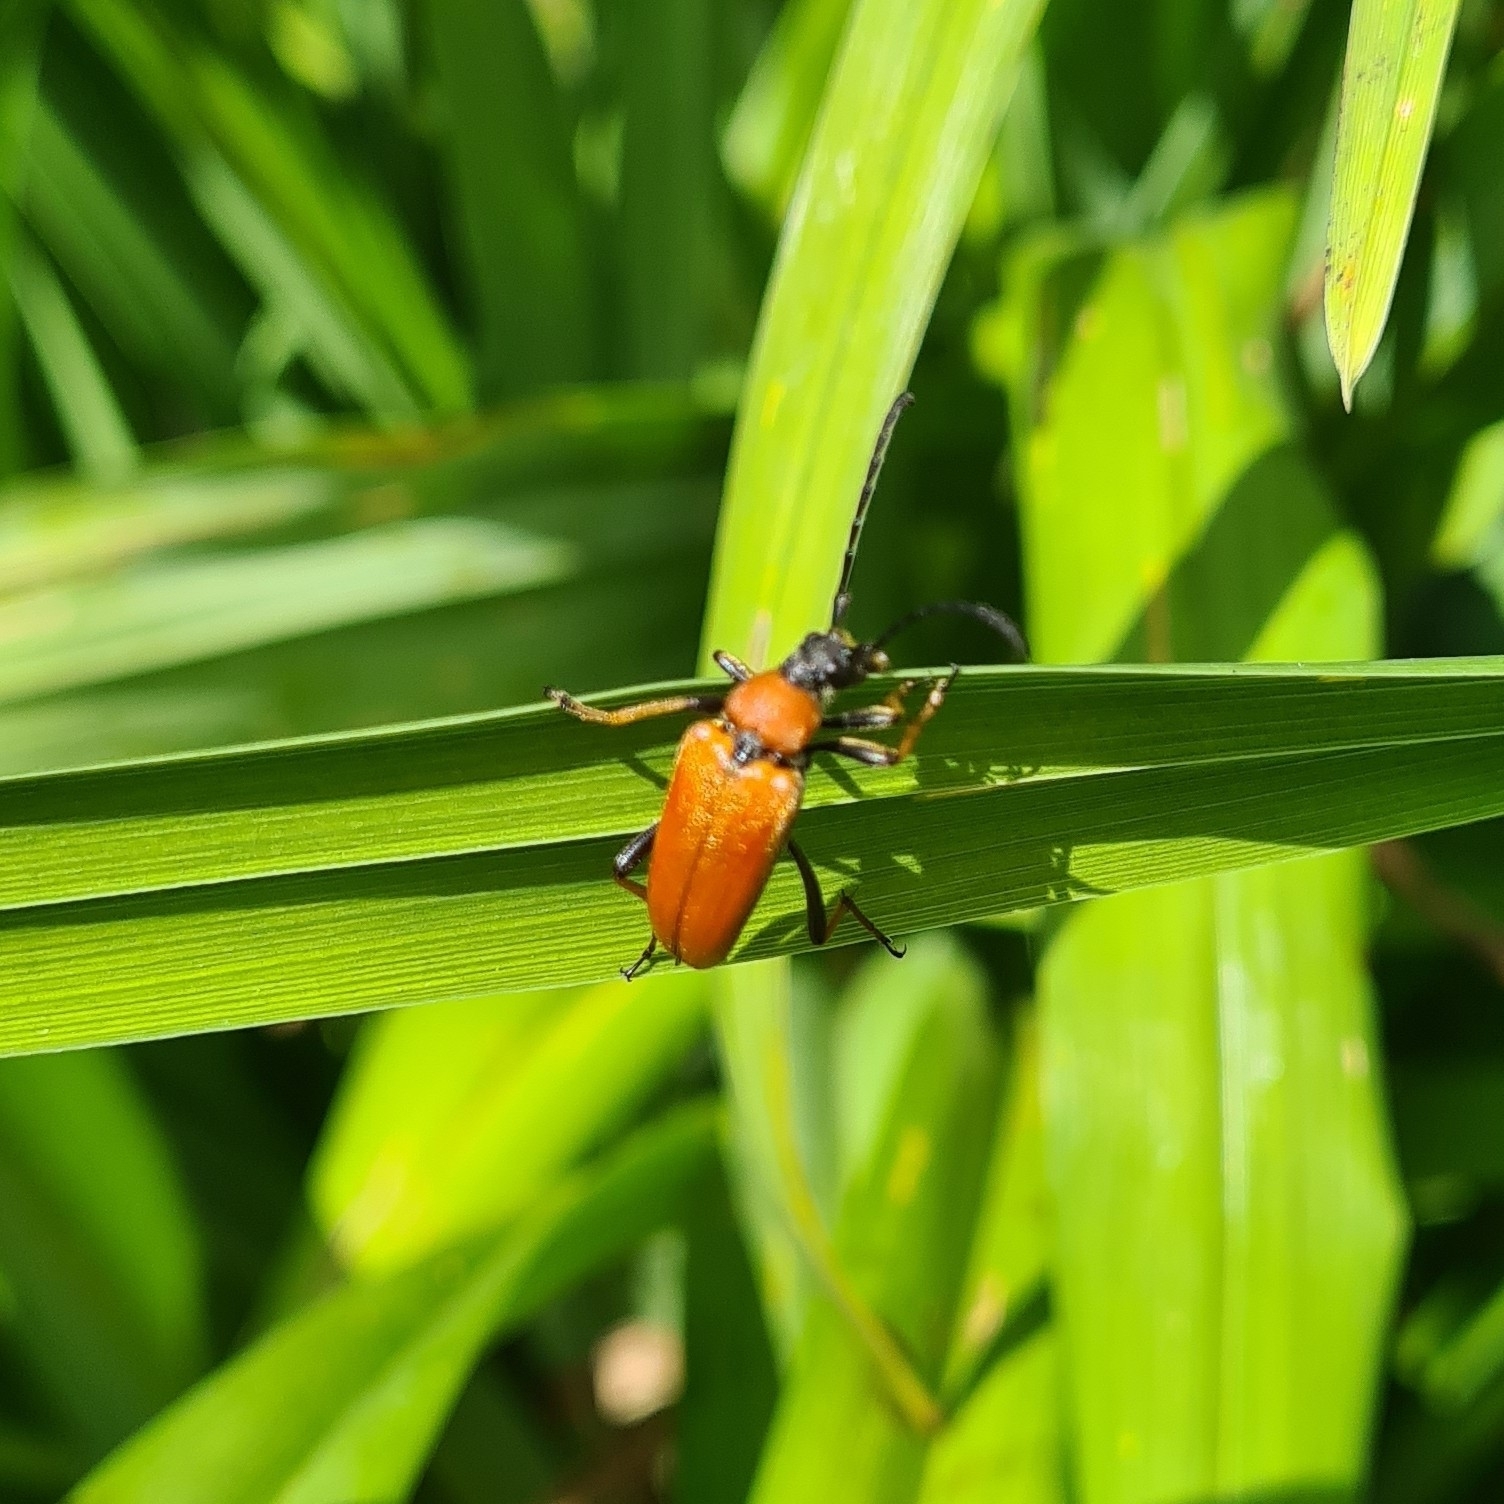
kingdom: Animalia
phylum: Arthropoda
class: Insecta
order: Coleoptera
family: Cerambycidae
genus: Stictoleptura
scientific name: Stictoleptura rubra
